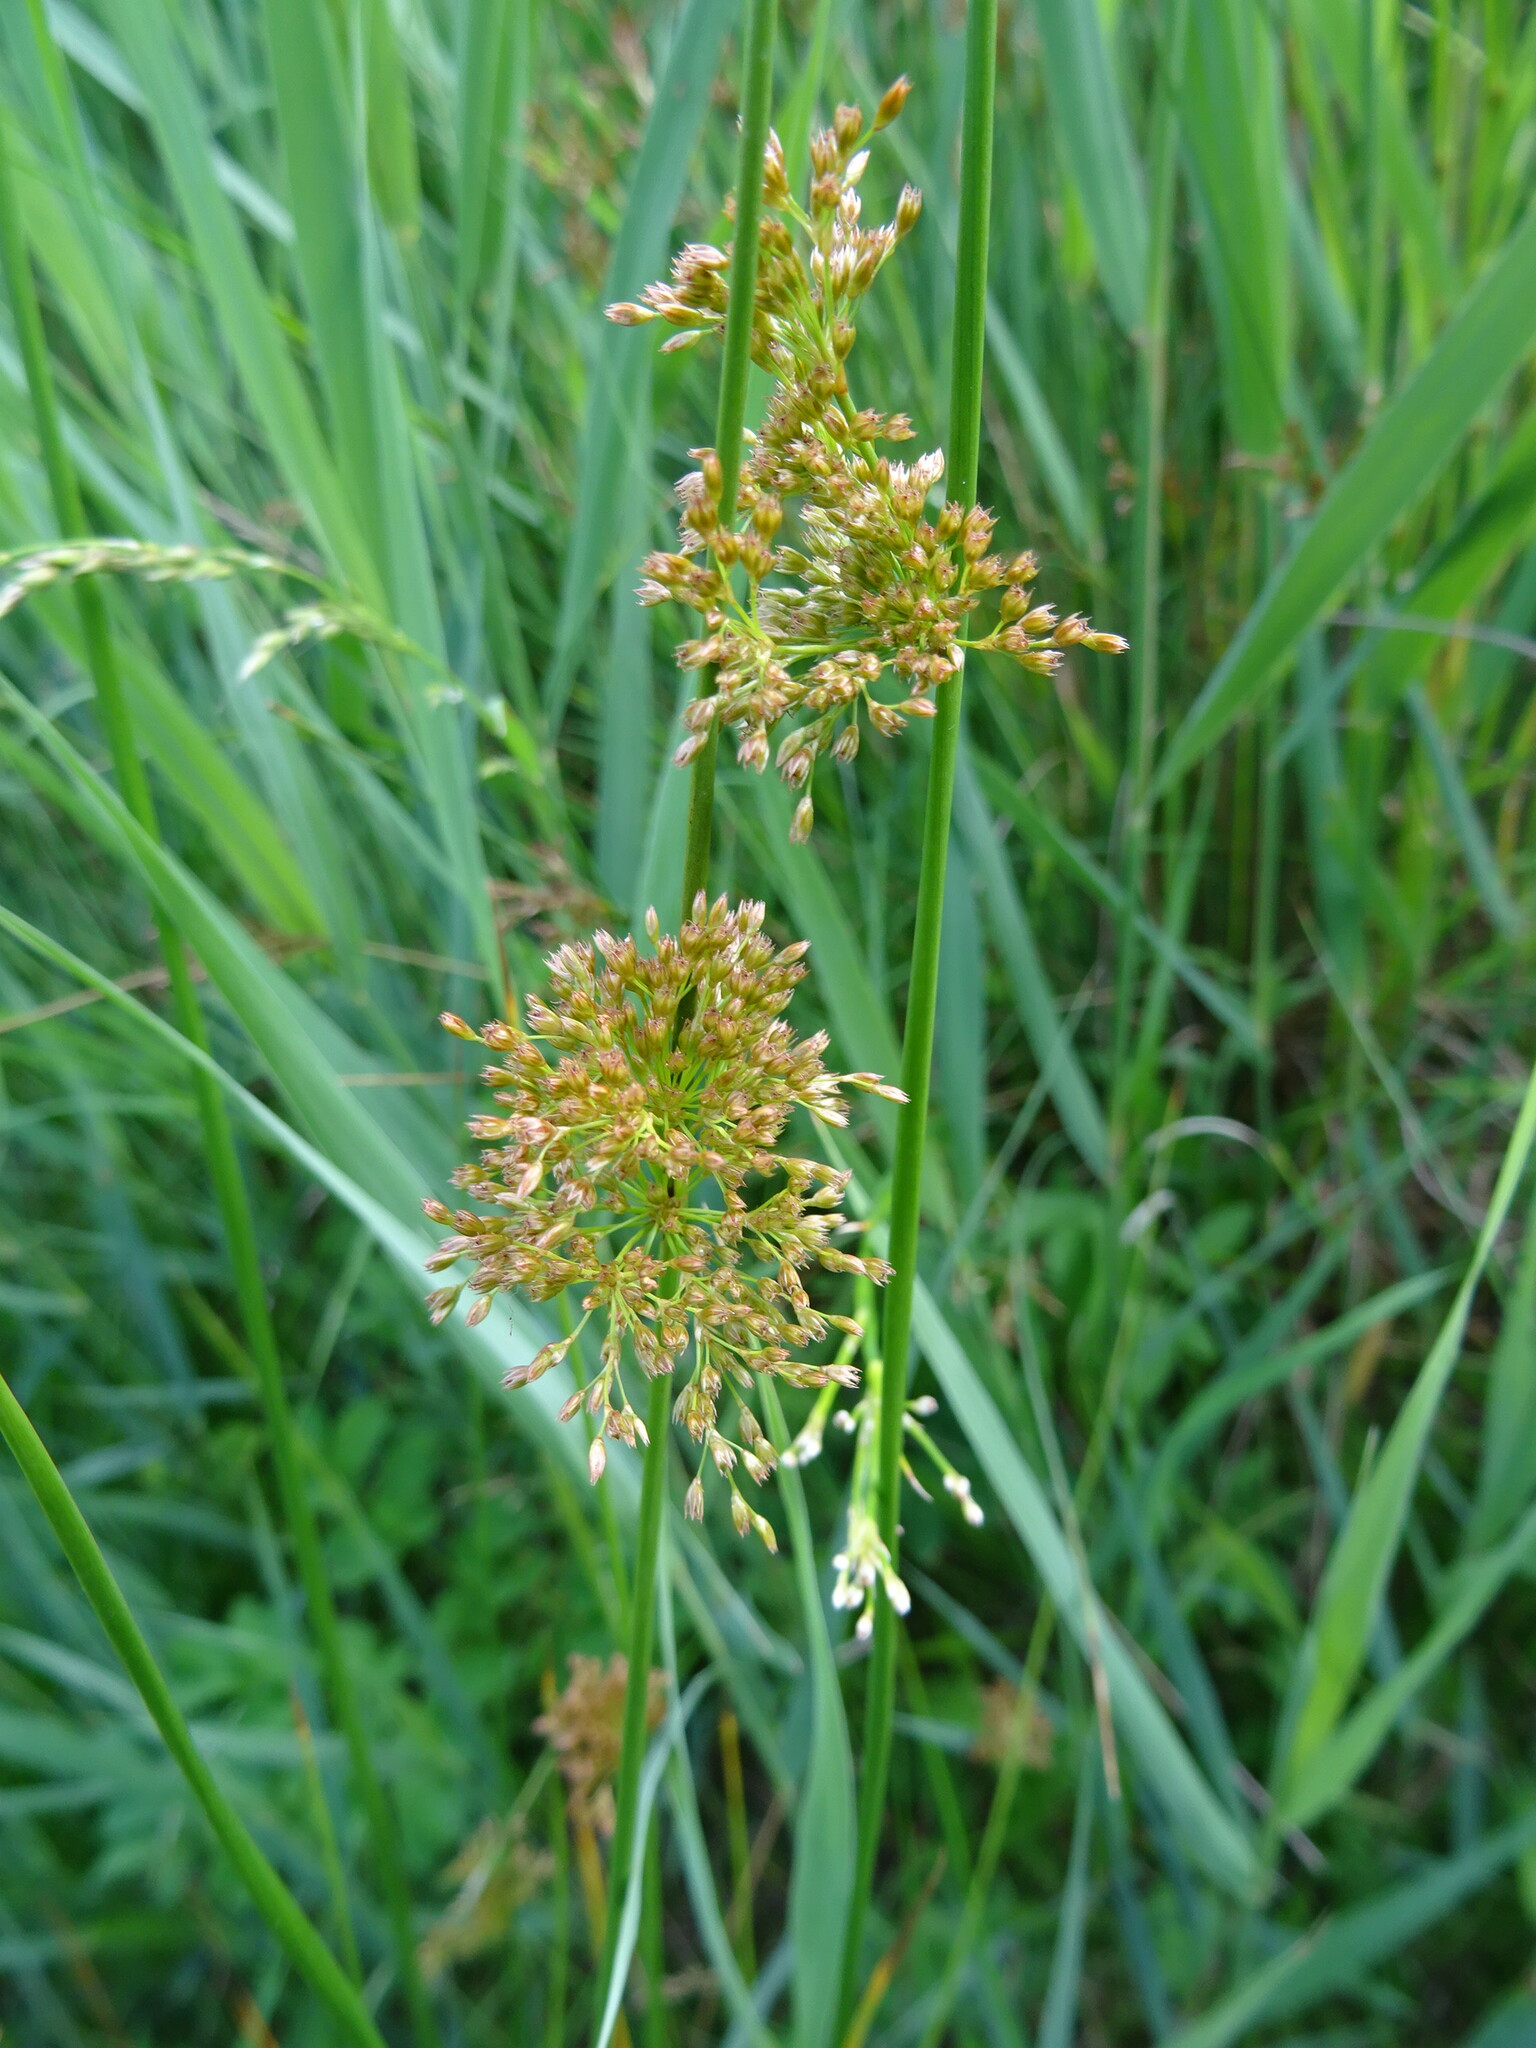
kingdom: Plantae
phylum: Tracheophyta
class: Liliopsida
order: Poales
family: Juncaceae
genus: Juncus
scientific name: Juncus effusus
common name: Soft rush
